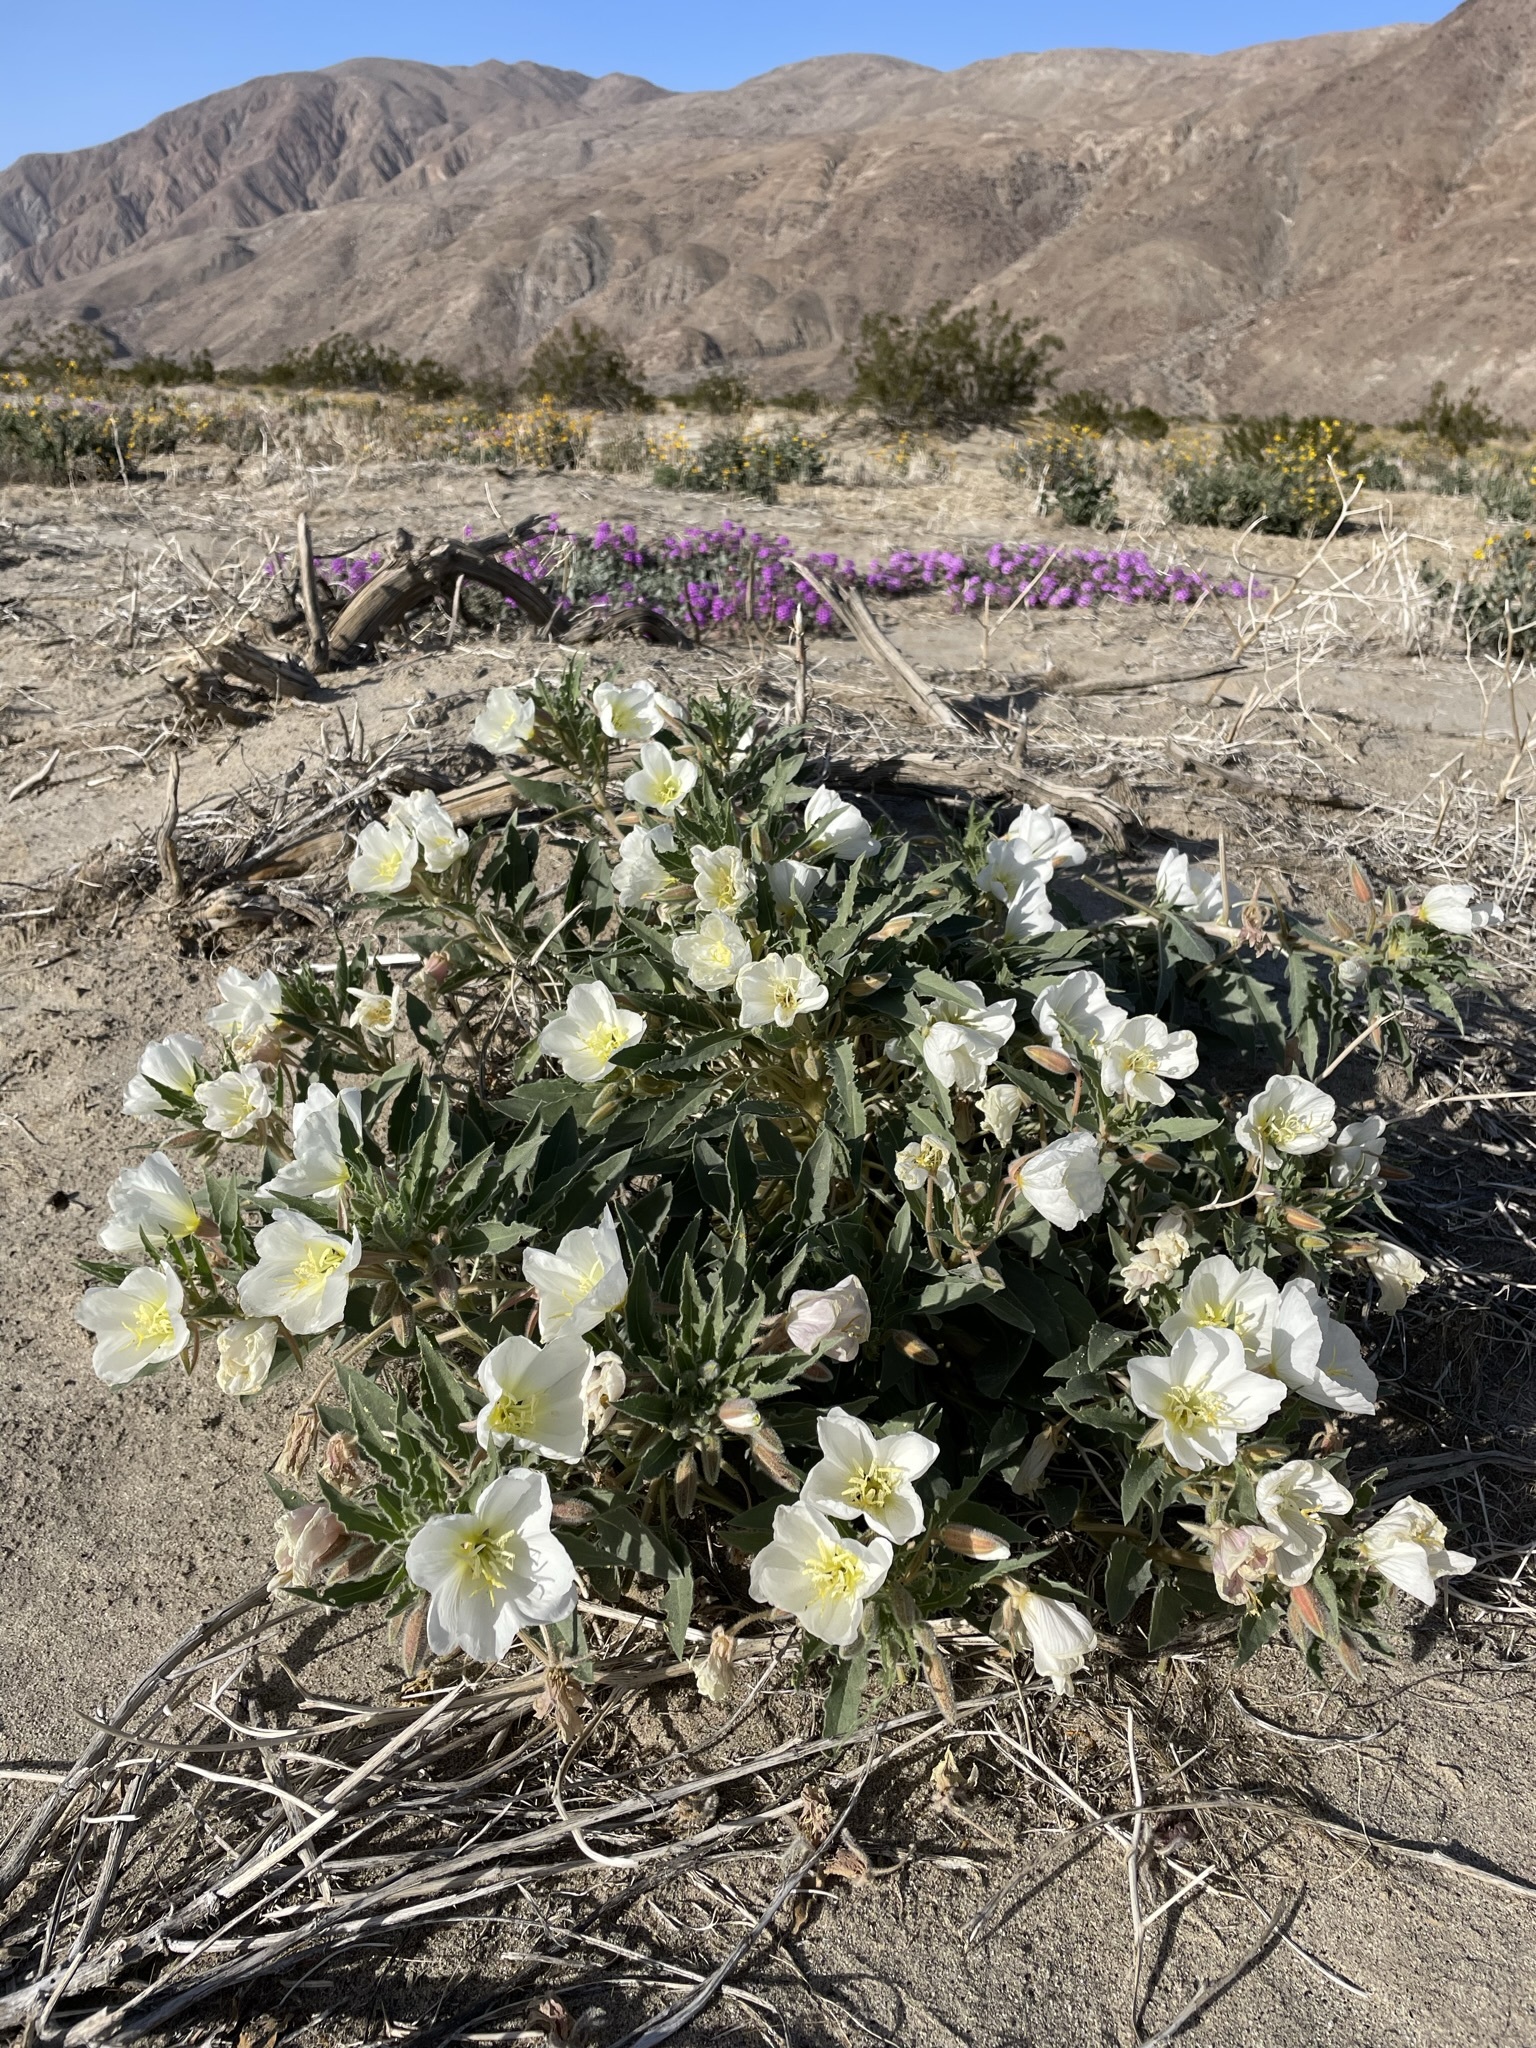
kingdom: Plantae
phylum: Tracheophyta
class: Magnoliopsida
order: Myrtales
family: Onagraceae
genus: Oenothera
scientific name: Oenothera deltoides
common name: Basket evening-primrose
